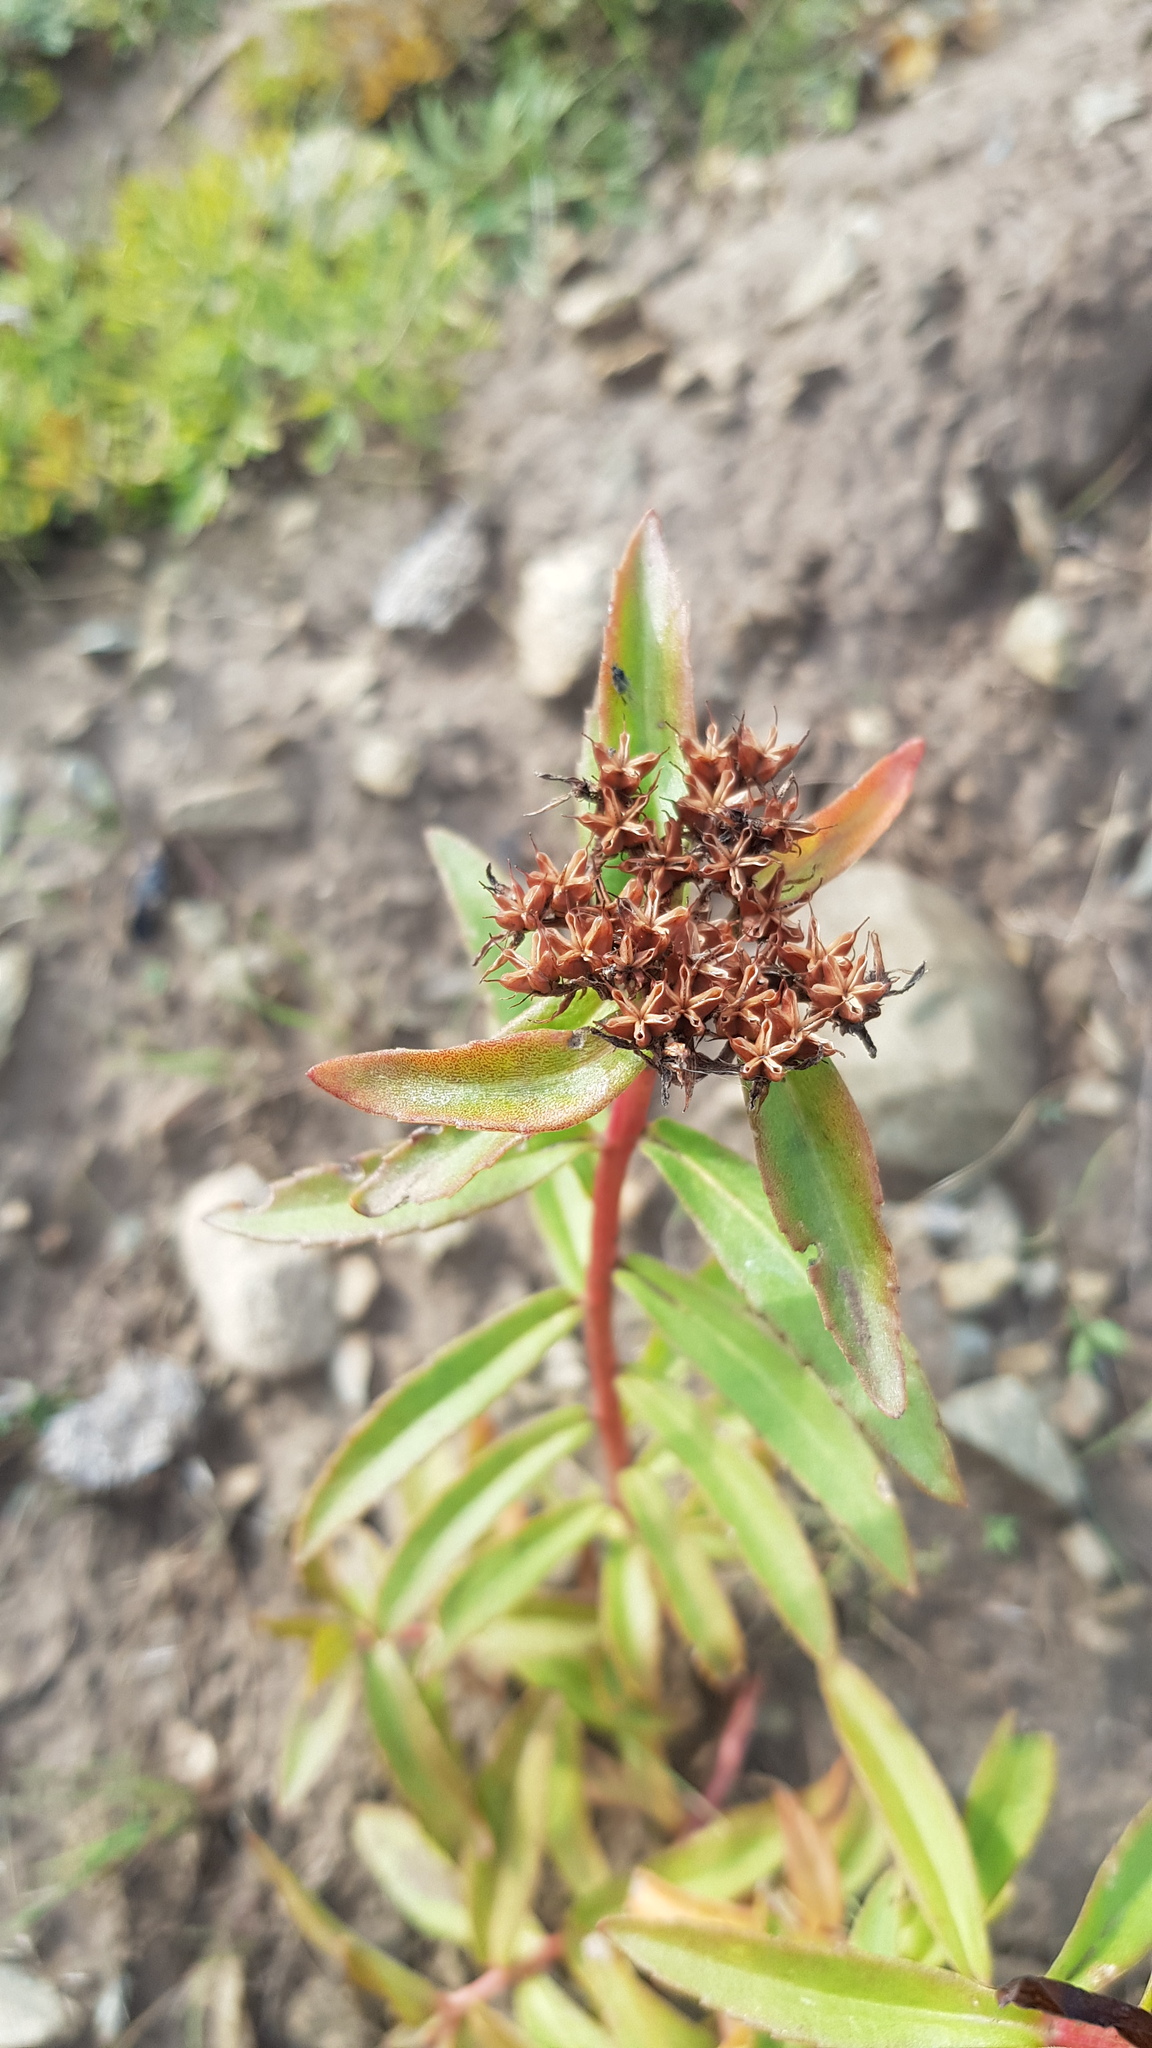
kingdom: Plantae
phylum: Tracheophyta
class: Magnoliopsida
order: Saxifragales
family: Crassulaceae
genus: Phedimus
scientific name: Phedimus aizoon
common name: Orpin aizoon
